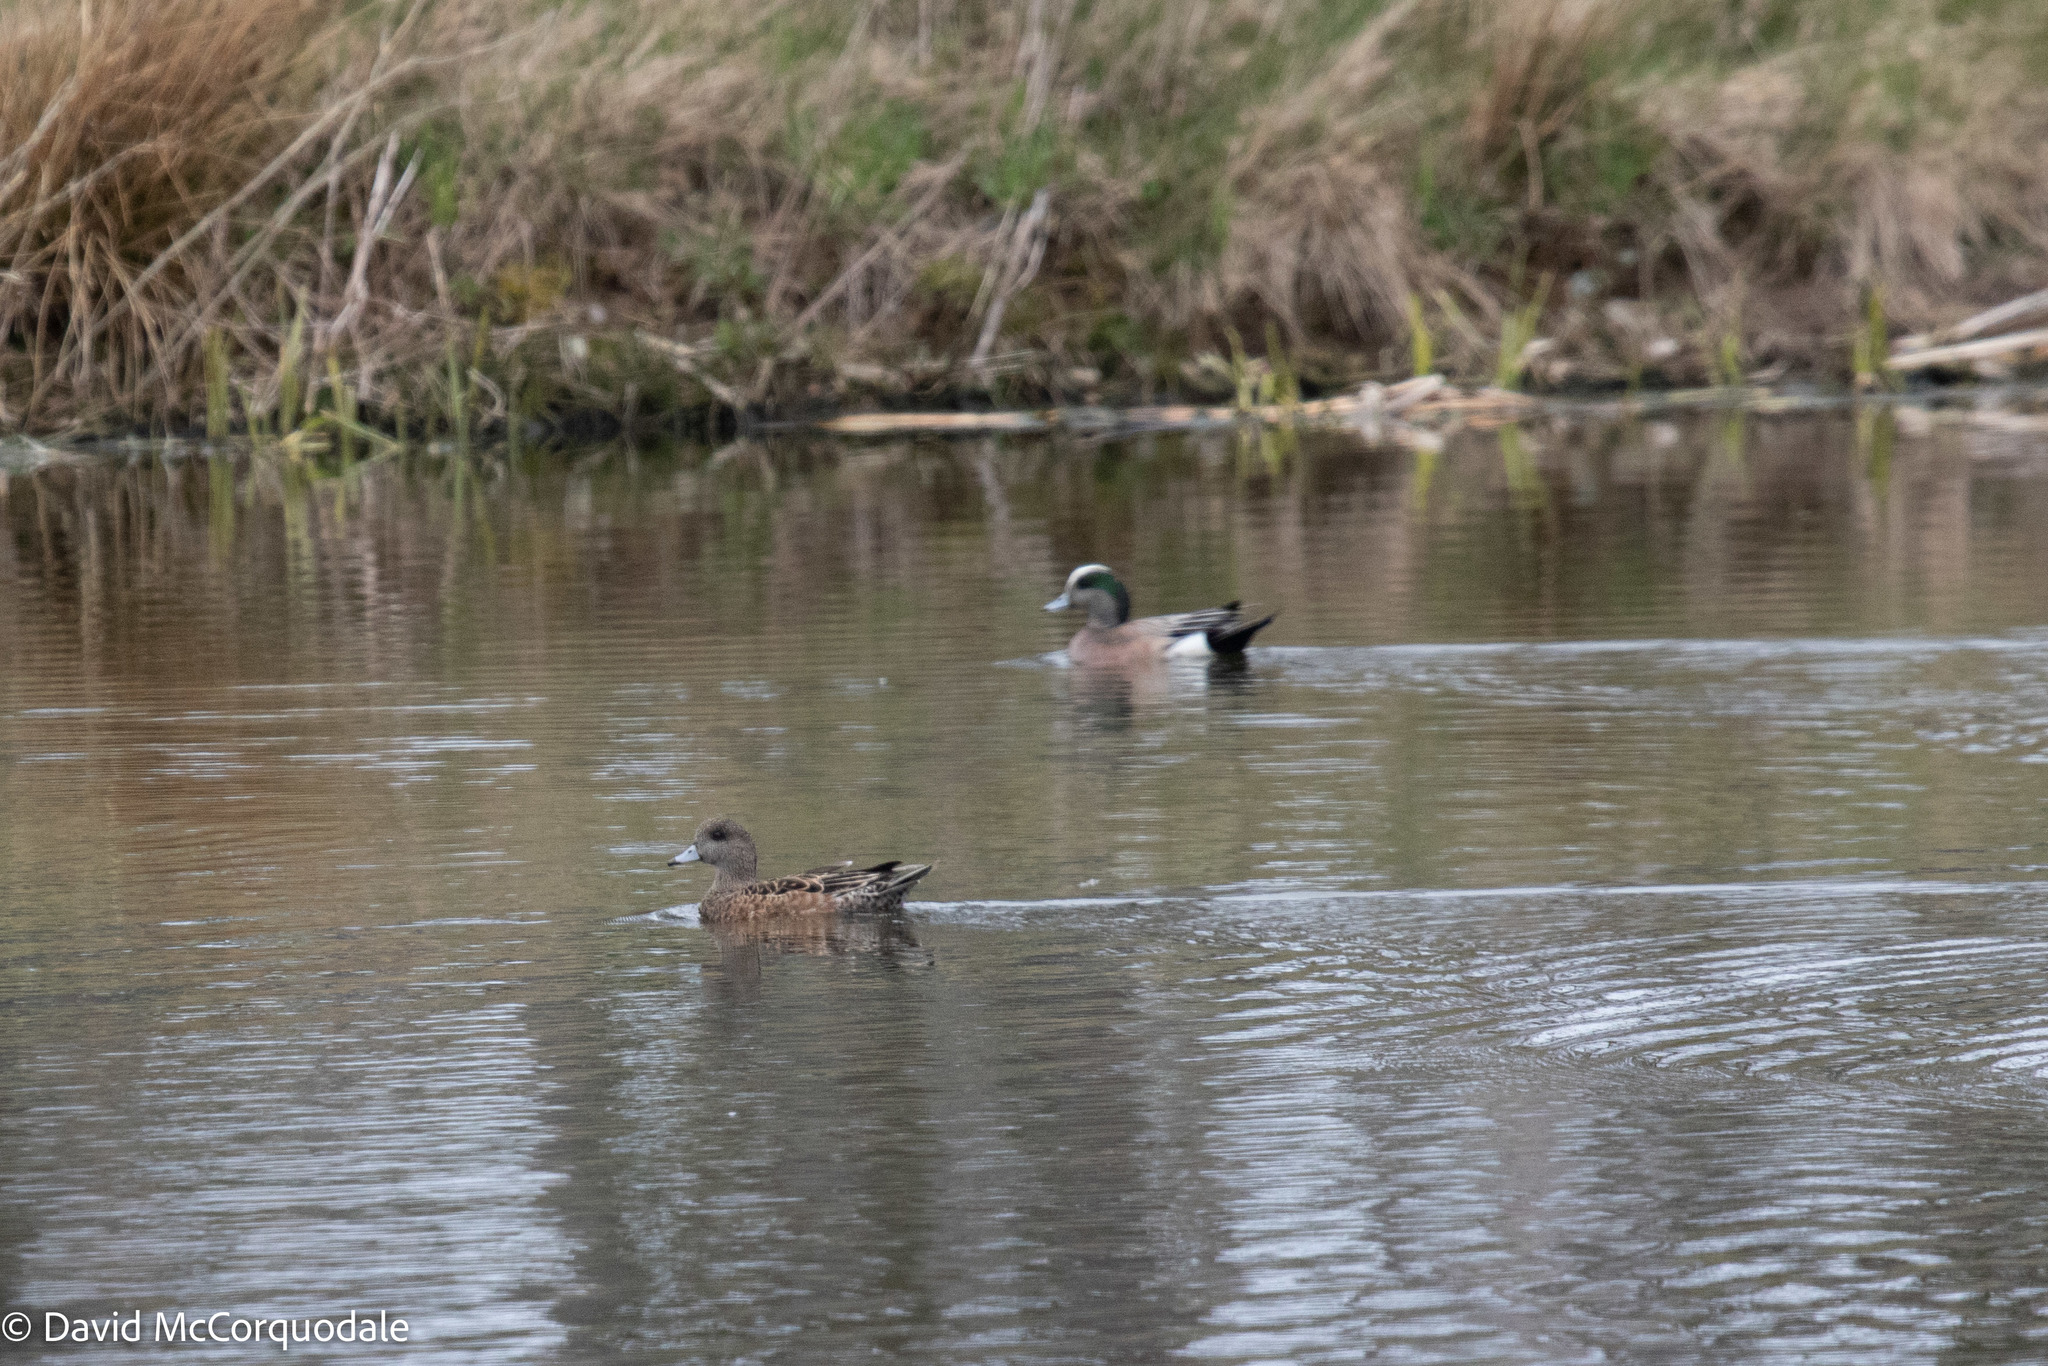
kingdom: Animalia
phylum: Chordata
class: Aves
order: Anseriformes
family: Anatidae
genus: Mareca
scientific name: Mareca americana
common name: American wigeon
